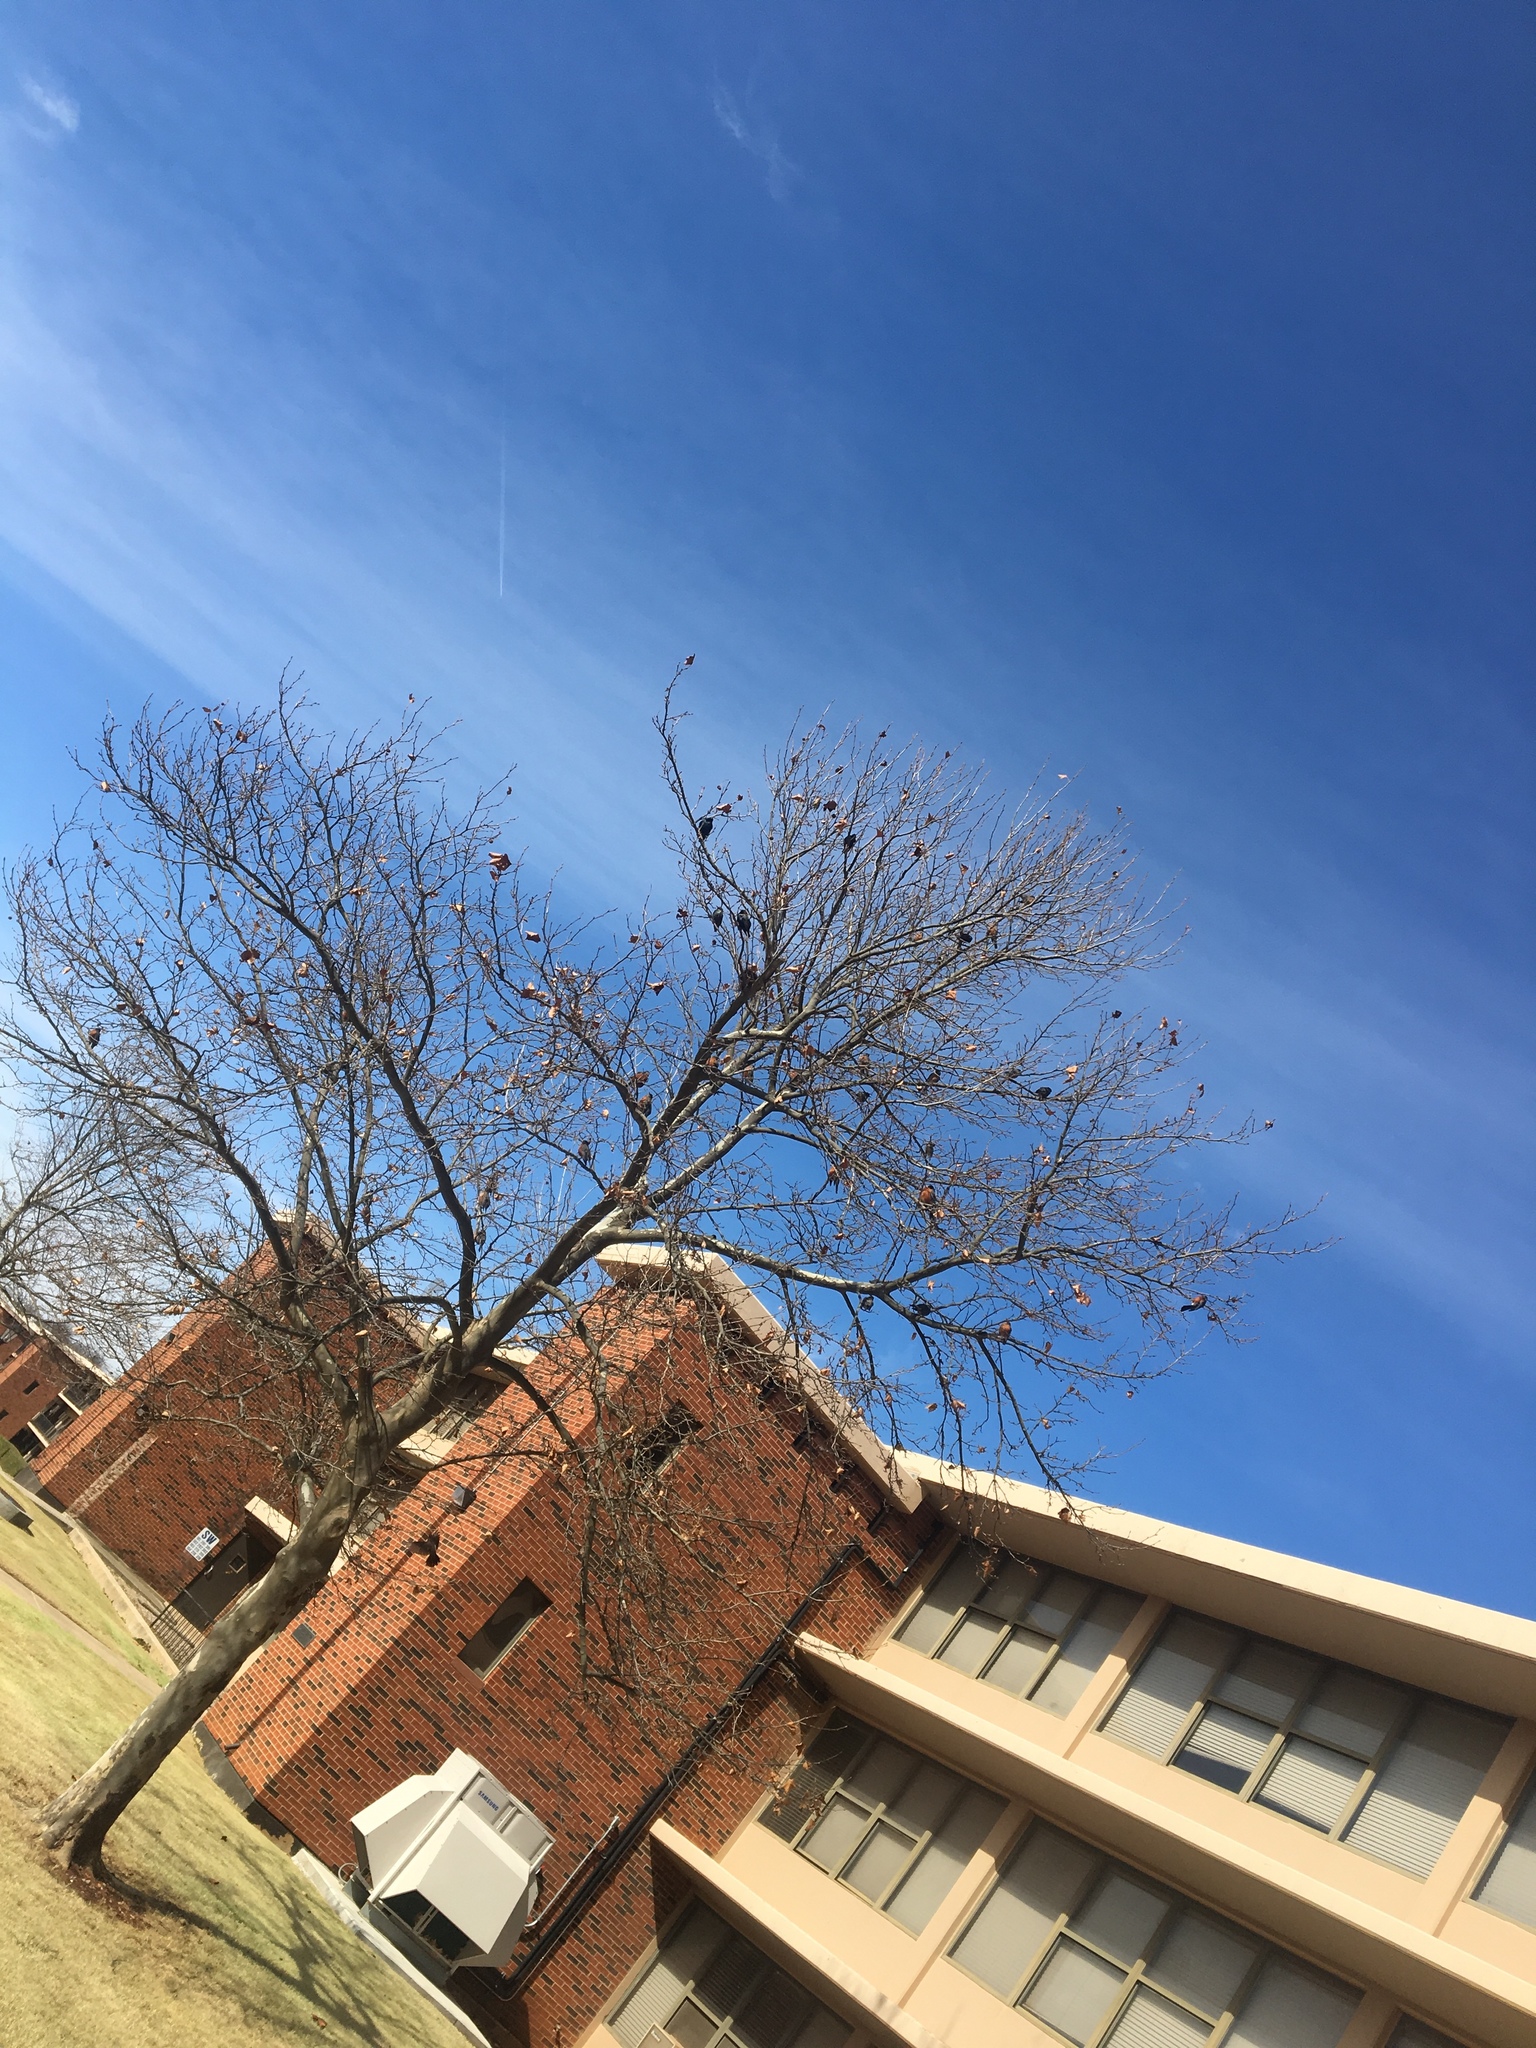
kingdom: Animalia
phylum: Chordata
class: Aves
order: Passeriformes
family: Turdidae
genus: Turdus
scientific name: Turdus migratorius
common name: American robin
